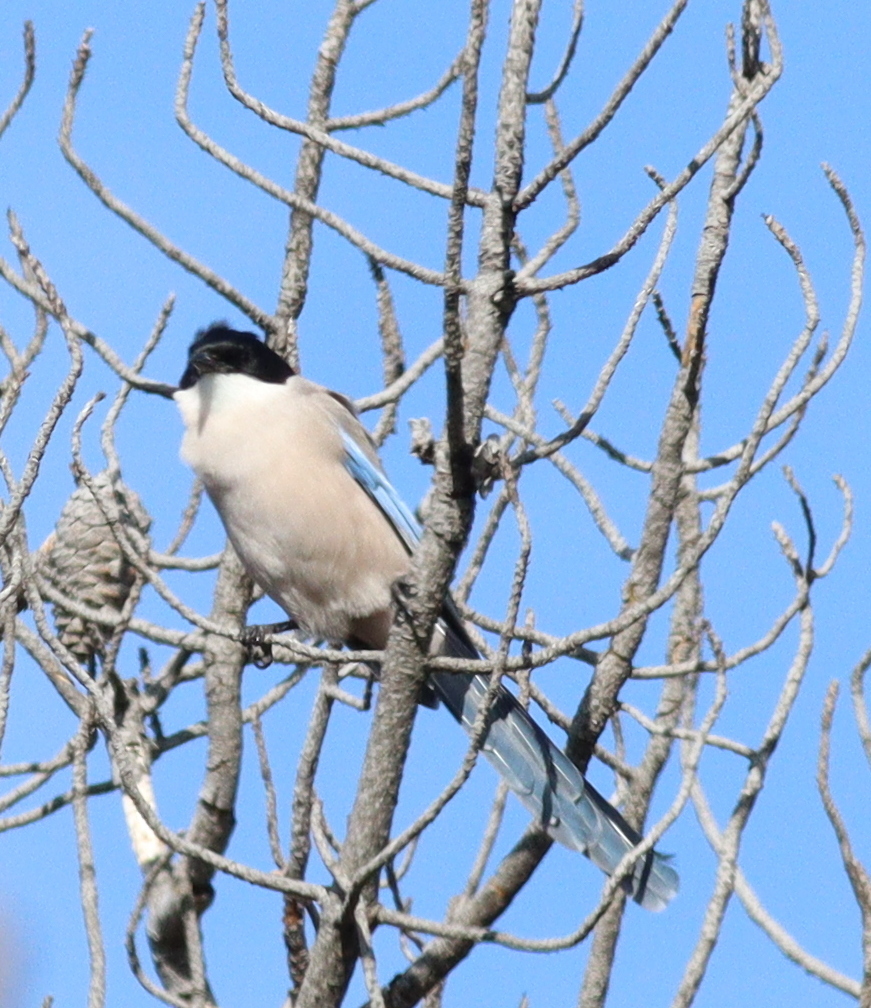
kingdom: Animalia
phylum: Chordata
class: Aves
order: Passeriformes
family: Corvidae
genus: Cyanopica
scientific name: Cyanopica cooki
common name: Iberian magpie
